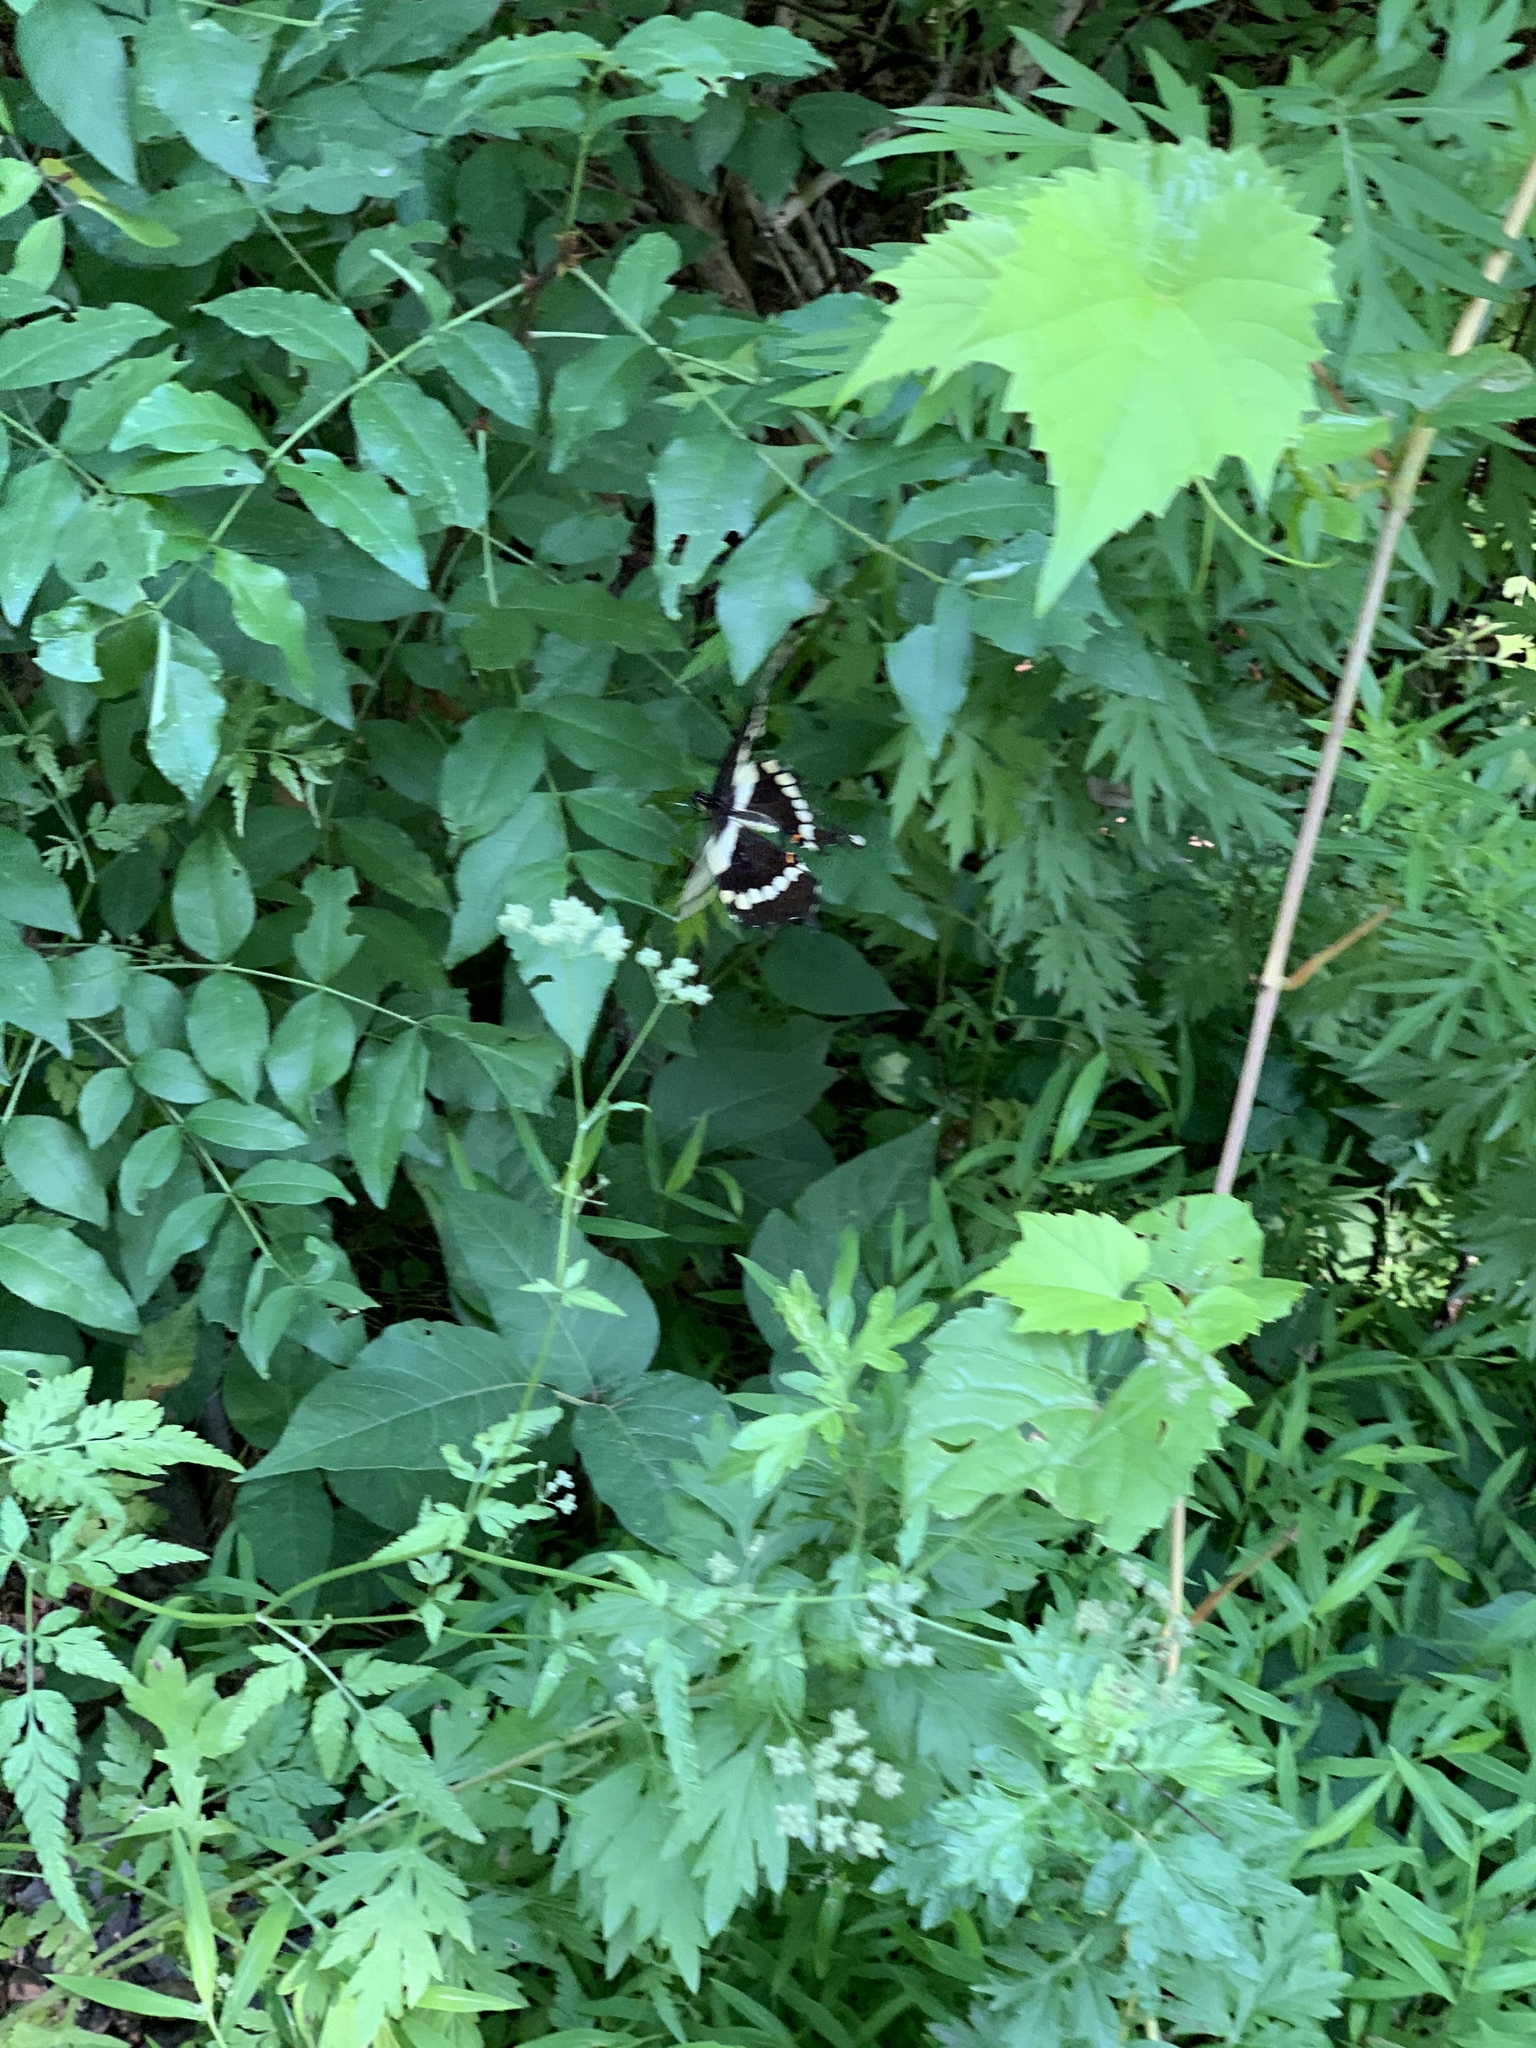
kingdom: Animalia
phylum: Arthropoda
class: Insecta
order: Lepidoptera
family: Papilionidae
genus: Papilio
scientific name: Papilio cresphontes
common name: Giant swallowtail
